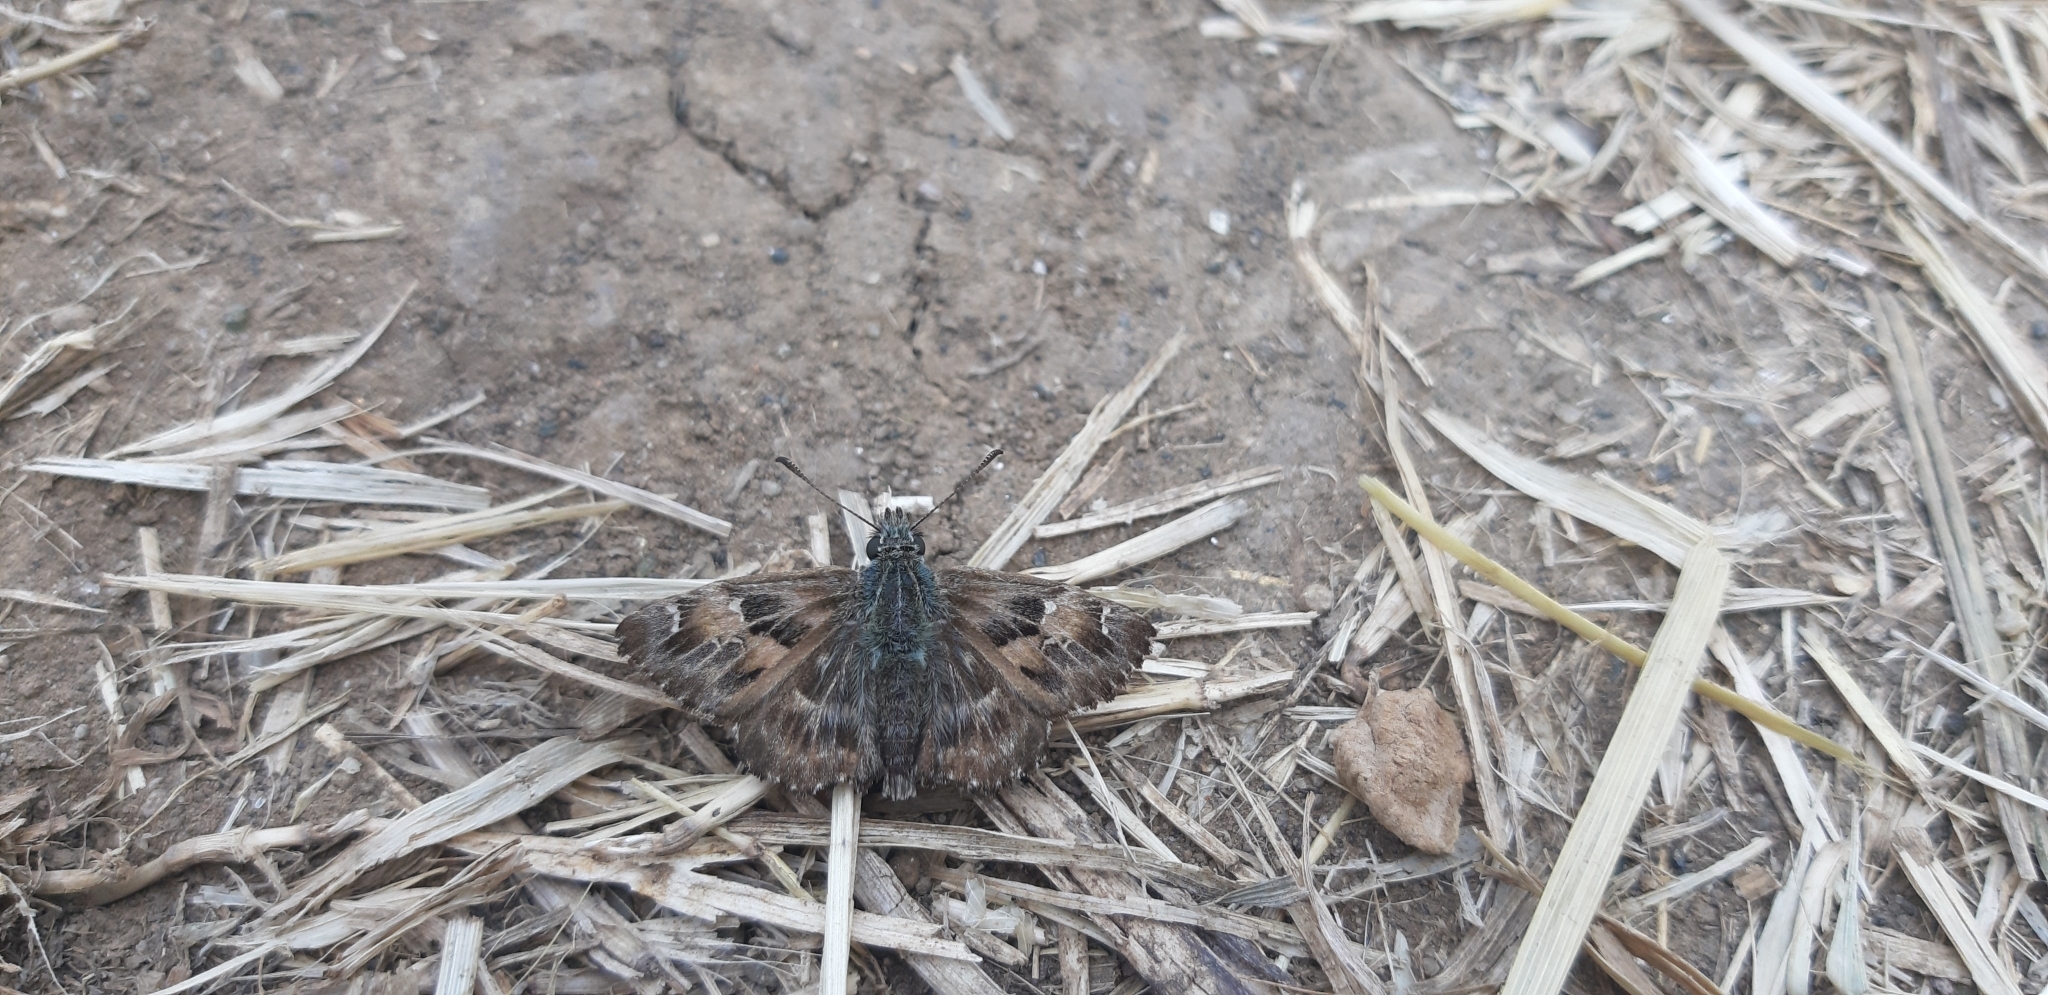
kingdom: Animalia
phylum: Arthropoda
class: Insecta
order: Lepidoptera
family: Hesperiidae
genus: Carcharodus
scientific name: Carcharodus alceae
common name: Mallow skipper
